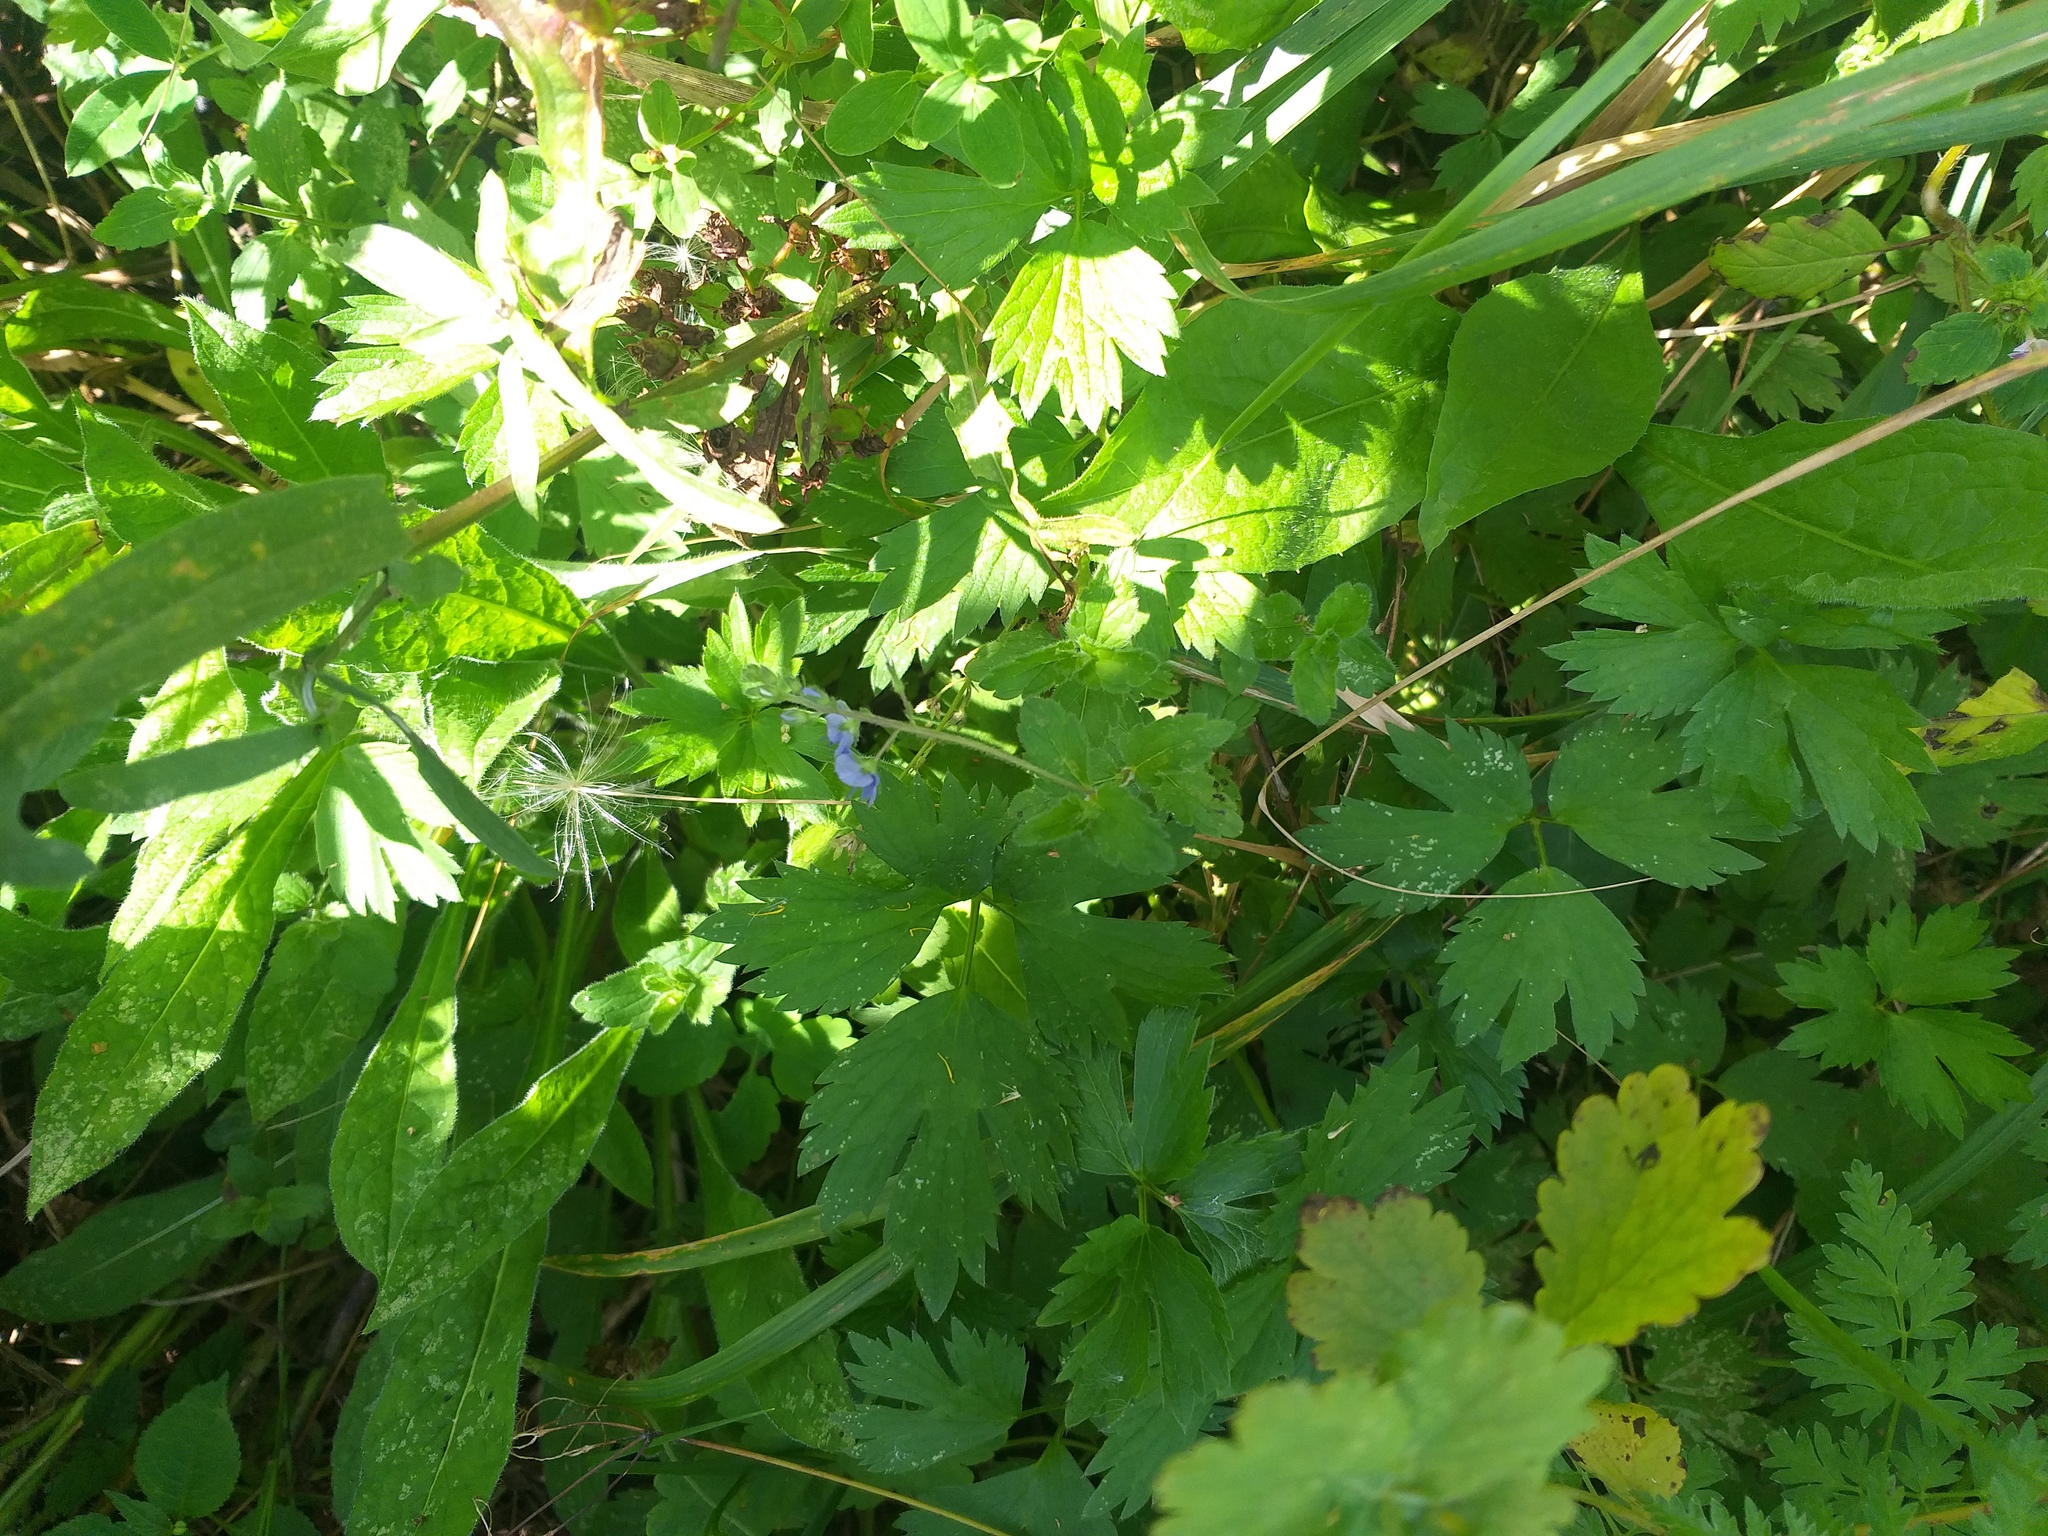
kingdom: Plantae
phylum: Tracheophyta
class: Magnoliopsida
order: Lamiales
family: Plantaginaceae
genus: Veronica
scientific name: Veronica chamaedrys
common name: Germander speedwell
